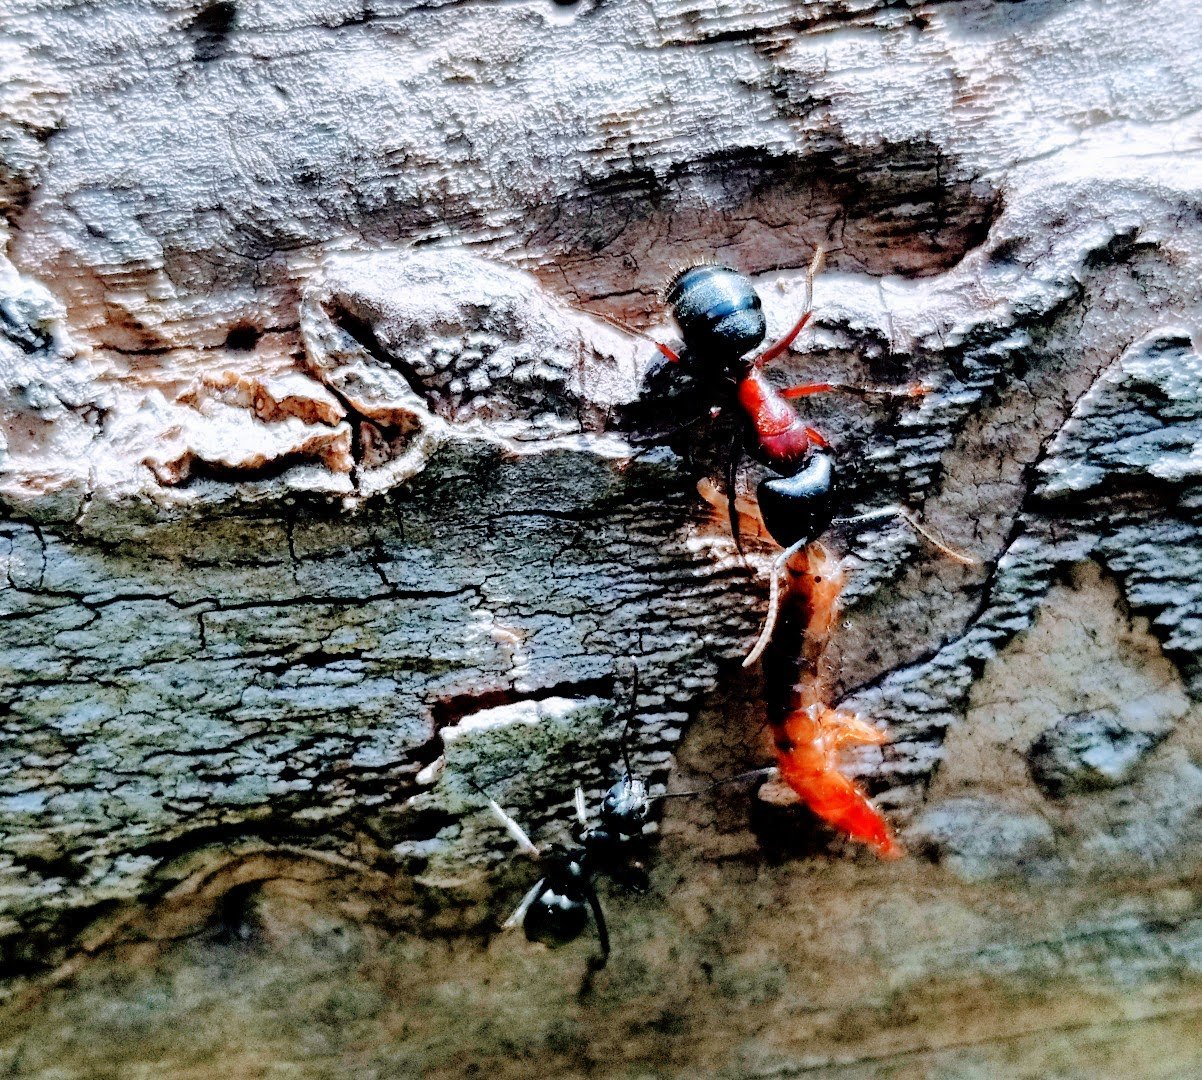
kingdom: Animalia
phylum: Arthropoda
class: Insecta
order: Hymenoptera
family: Formicidae
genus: Camponotus
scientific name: Camponotus novaeboracensis
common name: New york carpenter ant
